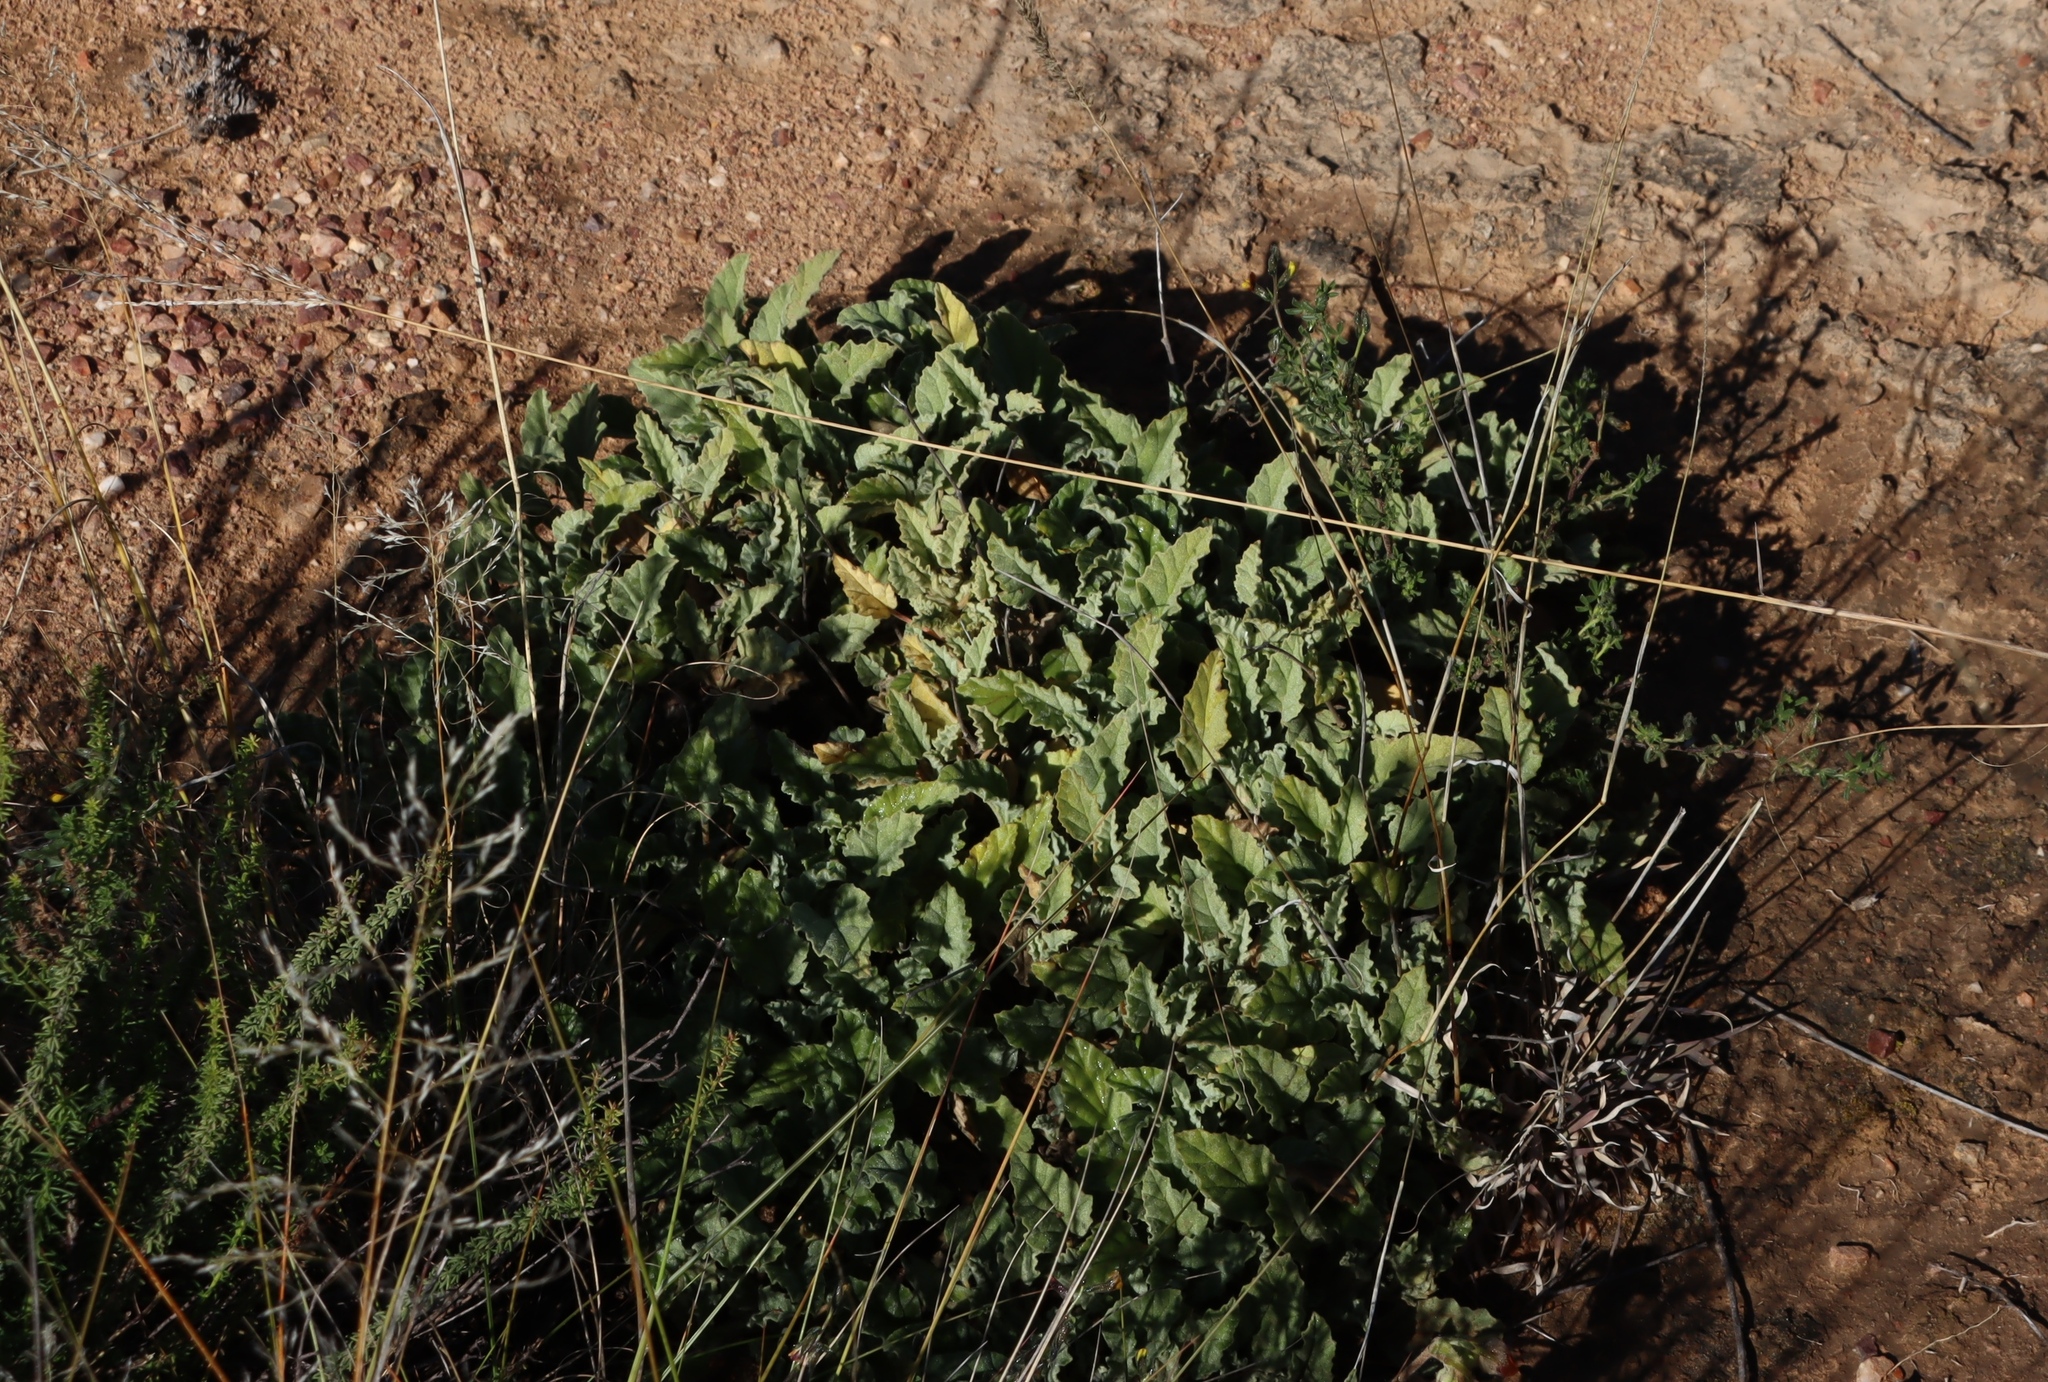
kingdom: Plantae
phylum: Tracheophyta
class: Magnoliopsida
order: Malvales
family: Malvaceae
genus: Hermannia
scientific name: Hermannia althaeifolia
